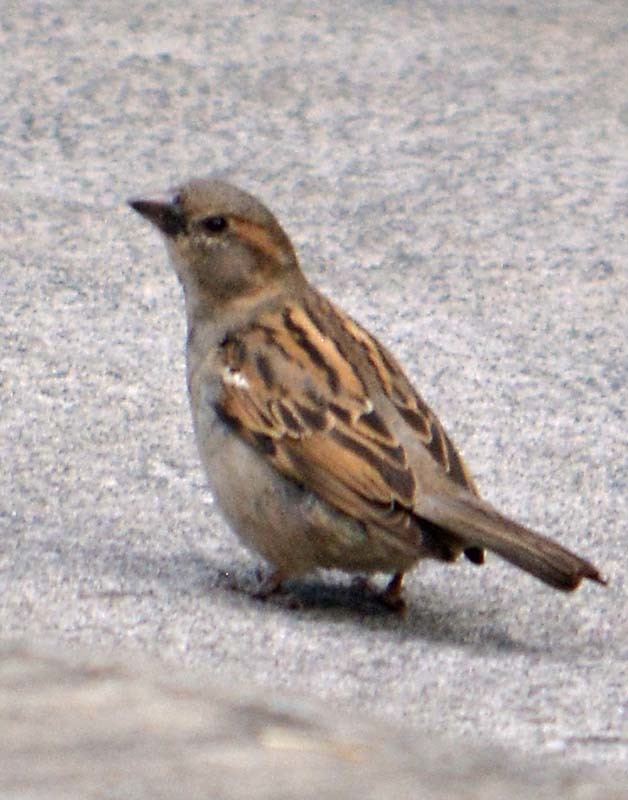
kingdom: Animalia
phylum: Chordata
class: Aves
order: Passeriformes
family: Passeridae
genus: Passer
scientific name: Passer domesticus
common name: House sparrow
